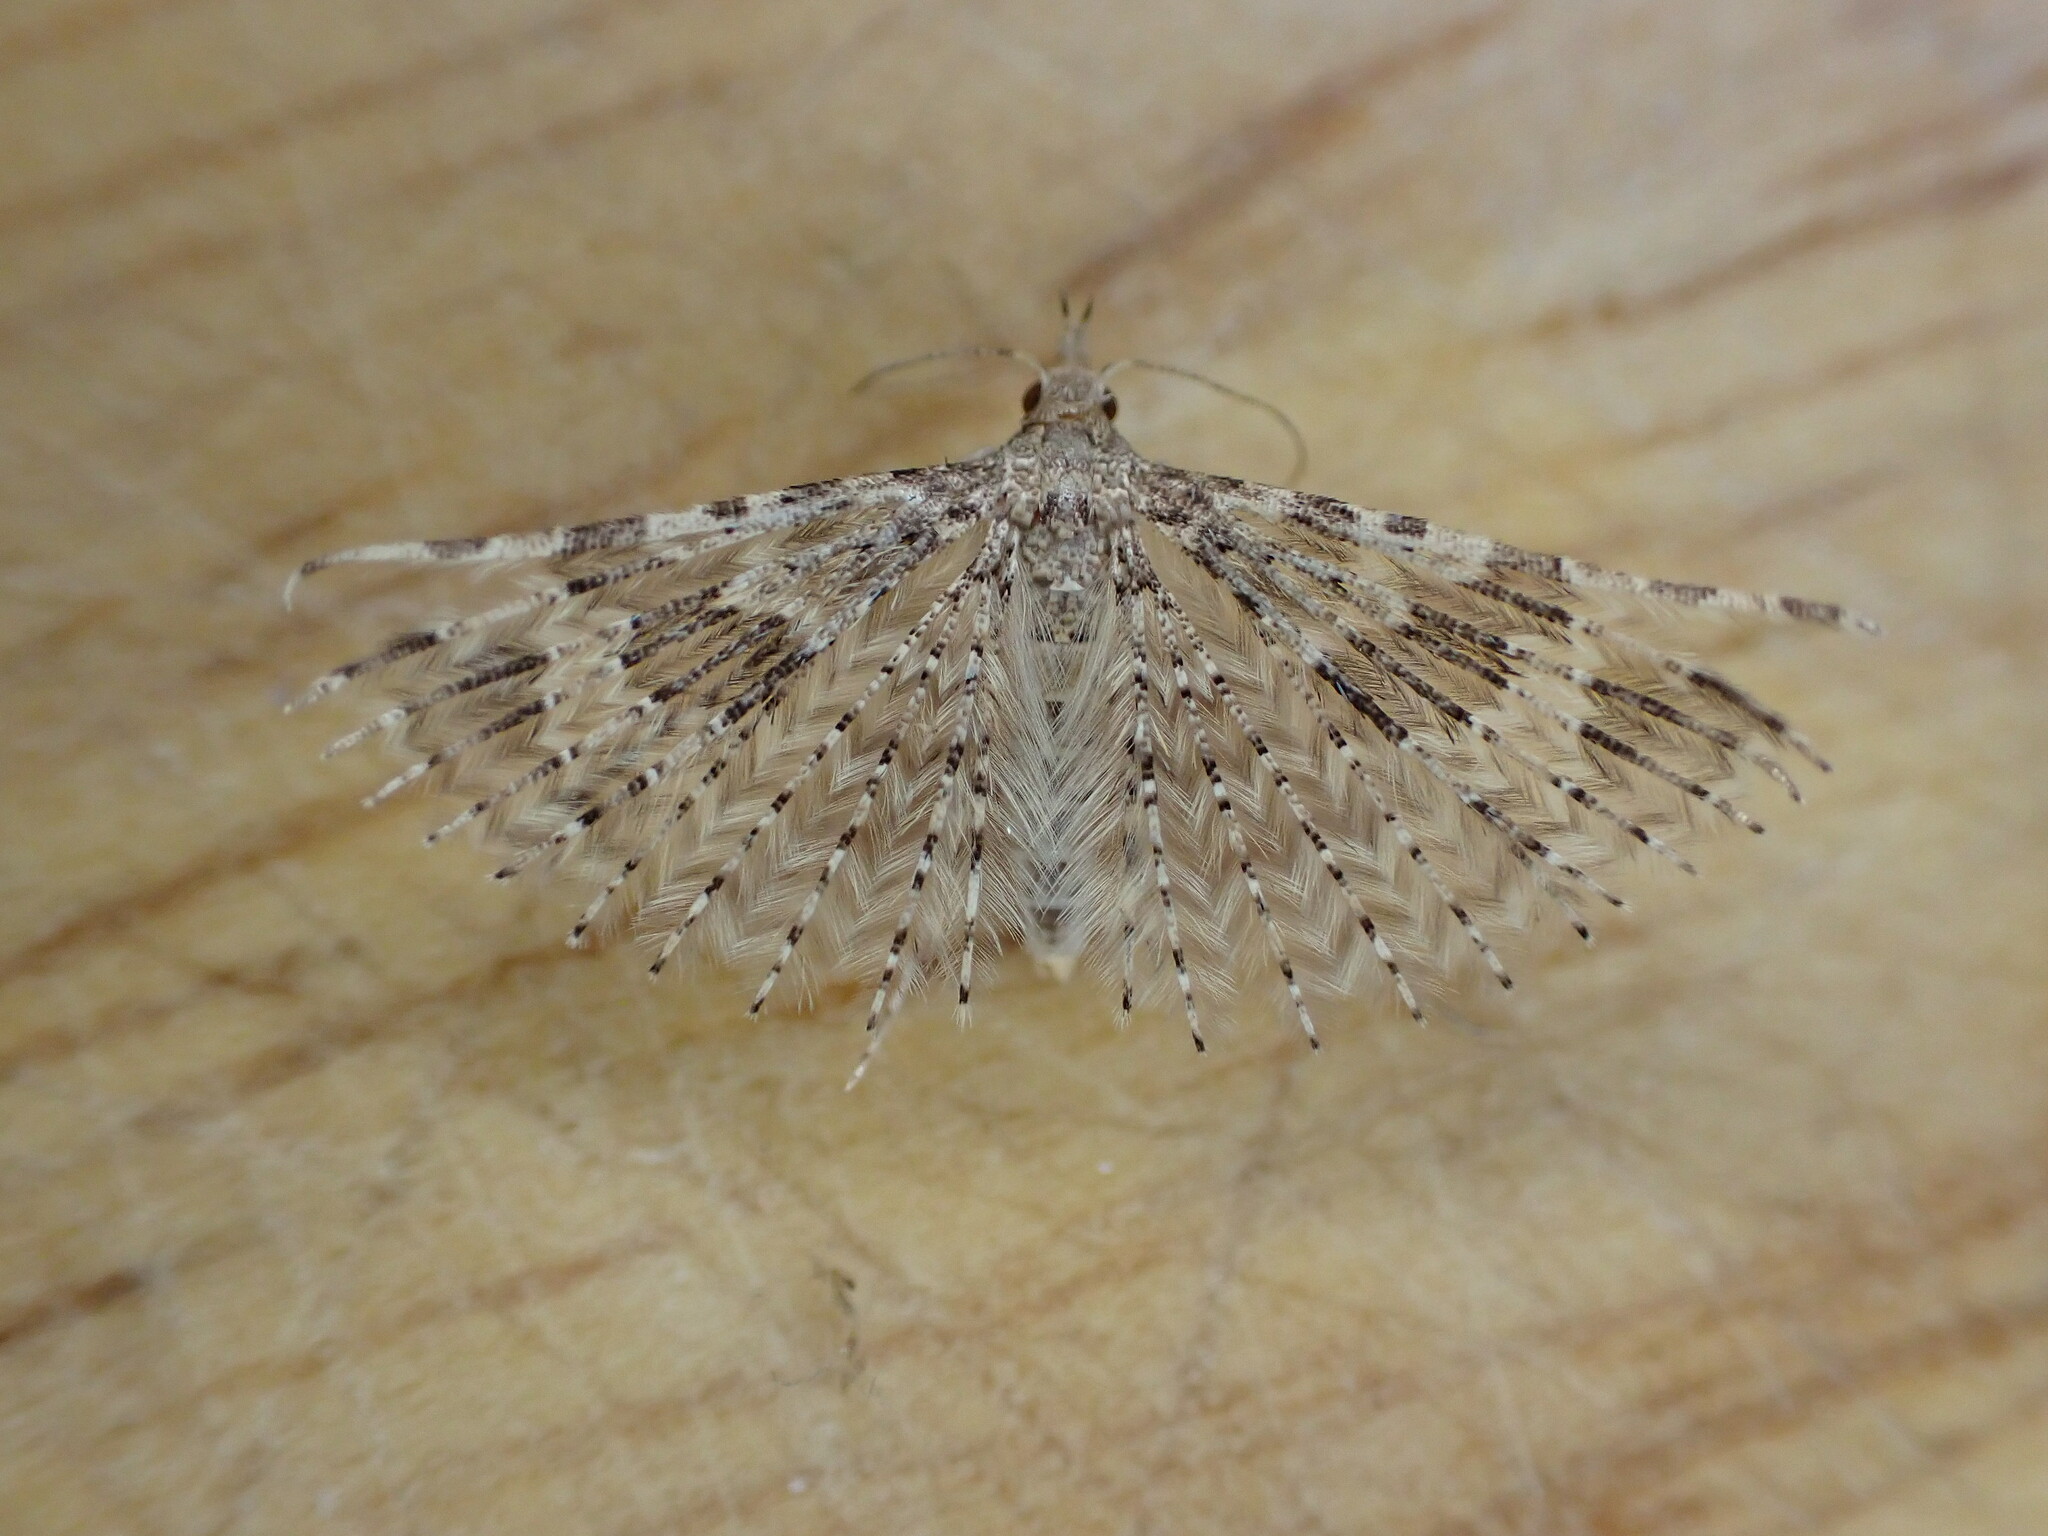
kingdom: Animalia
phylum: Arthropoda
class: Insecta
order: Lepidoptera
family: Alucitidae
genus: Alucita
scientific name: Alucita hexadactyla
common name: Twenty-plume moth
